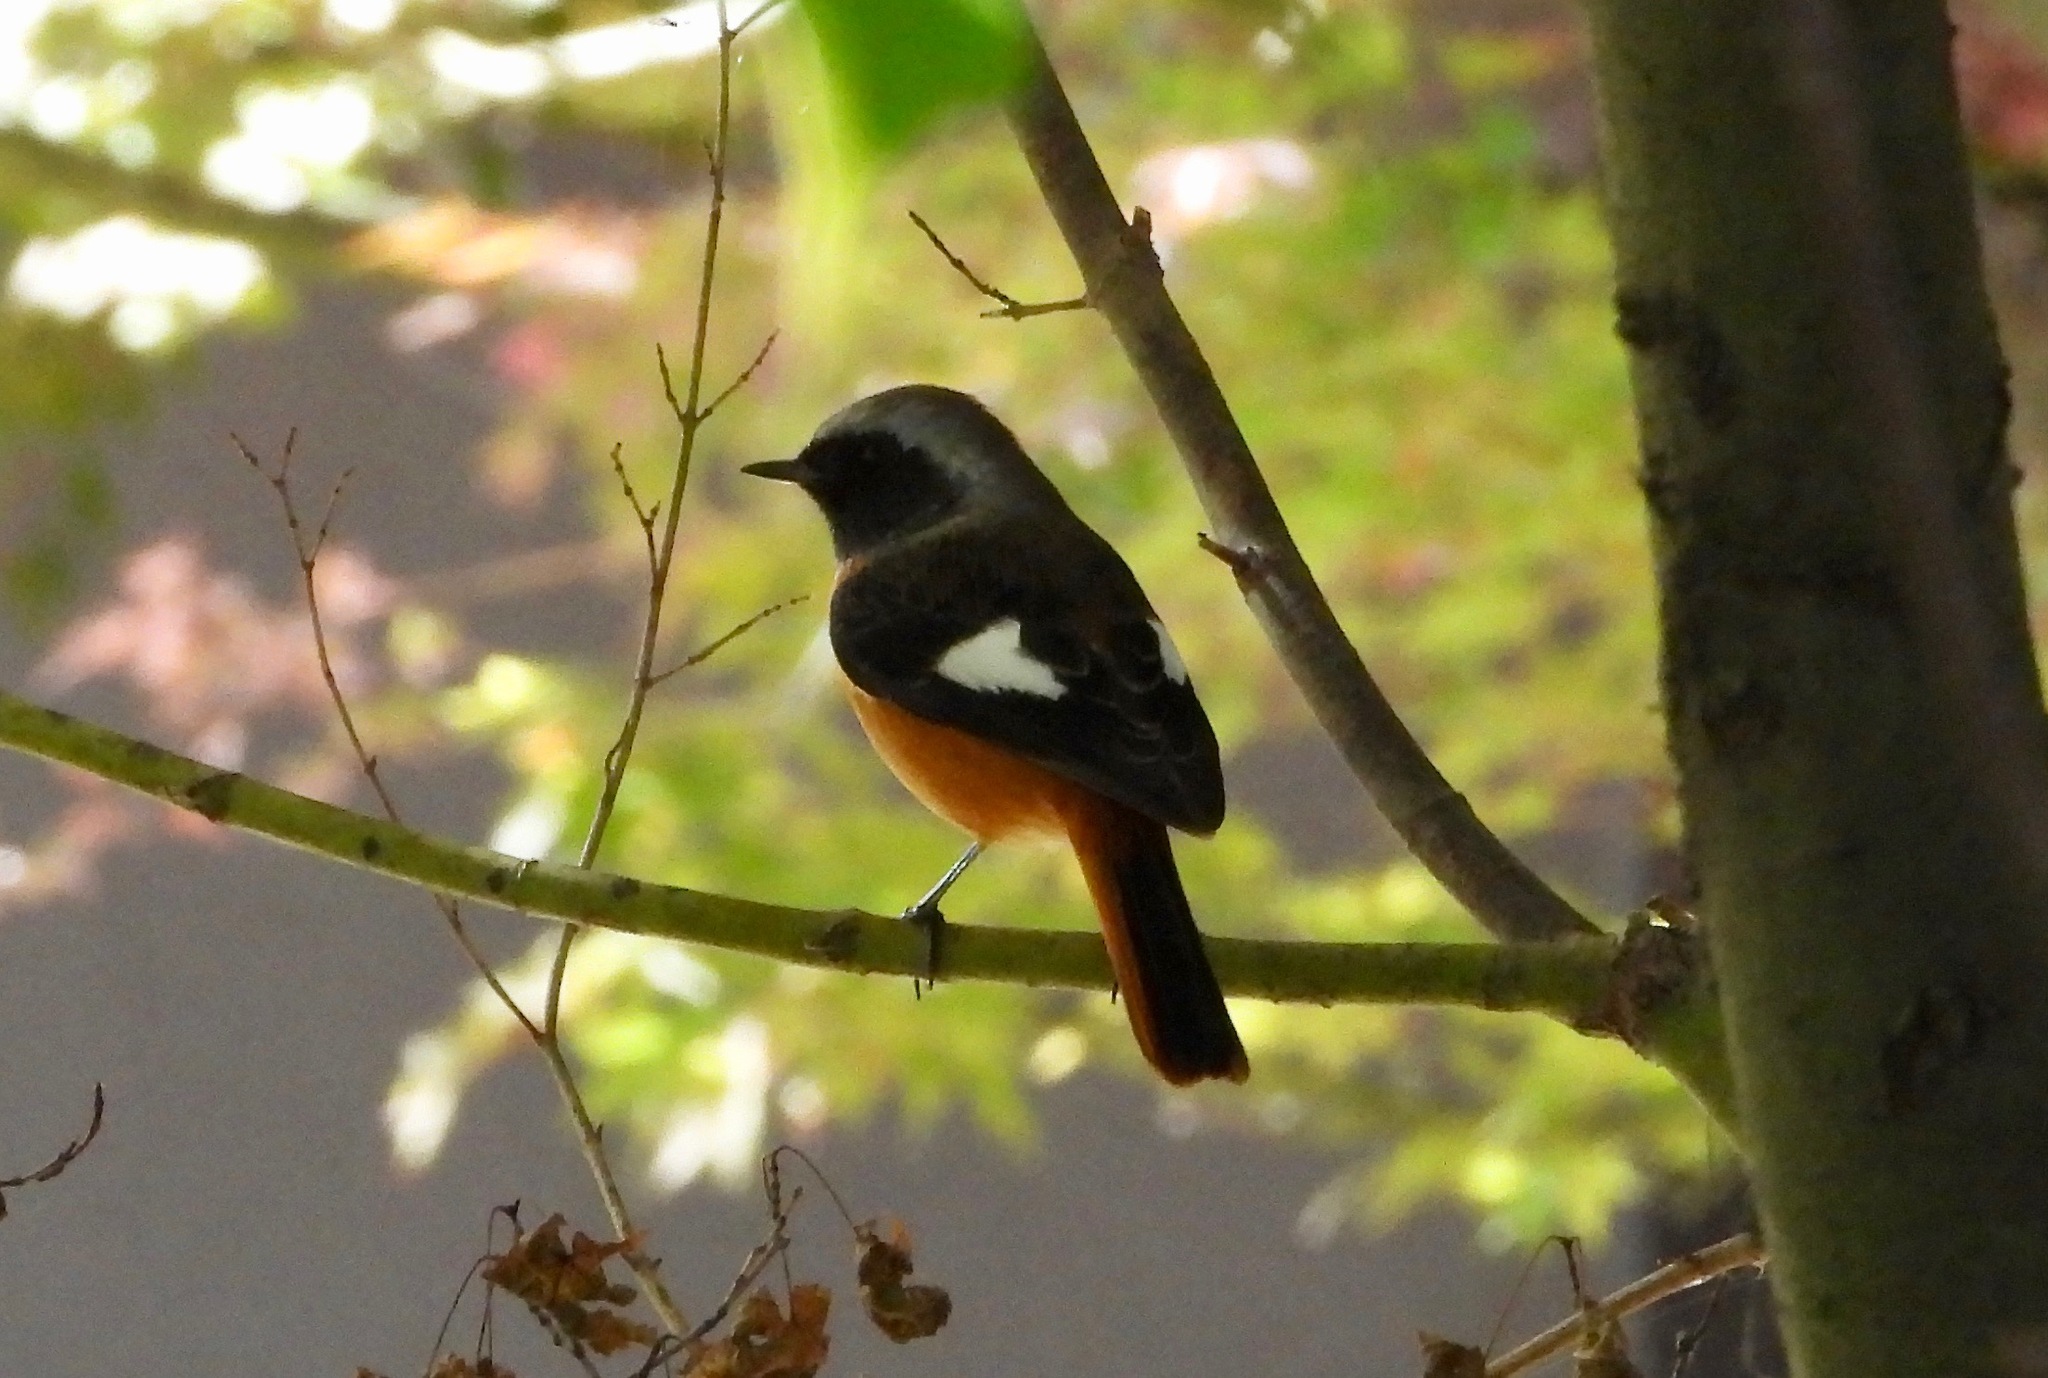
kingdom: Animalia
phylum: Chordata
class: Aves
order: Passeriformes
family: Muscicapidae
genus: Phoenicurus
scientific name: Phoenicurus auroreus
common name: Daurian redstart
